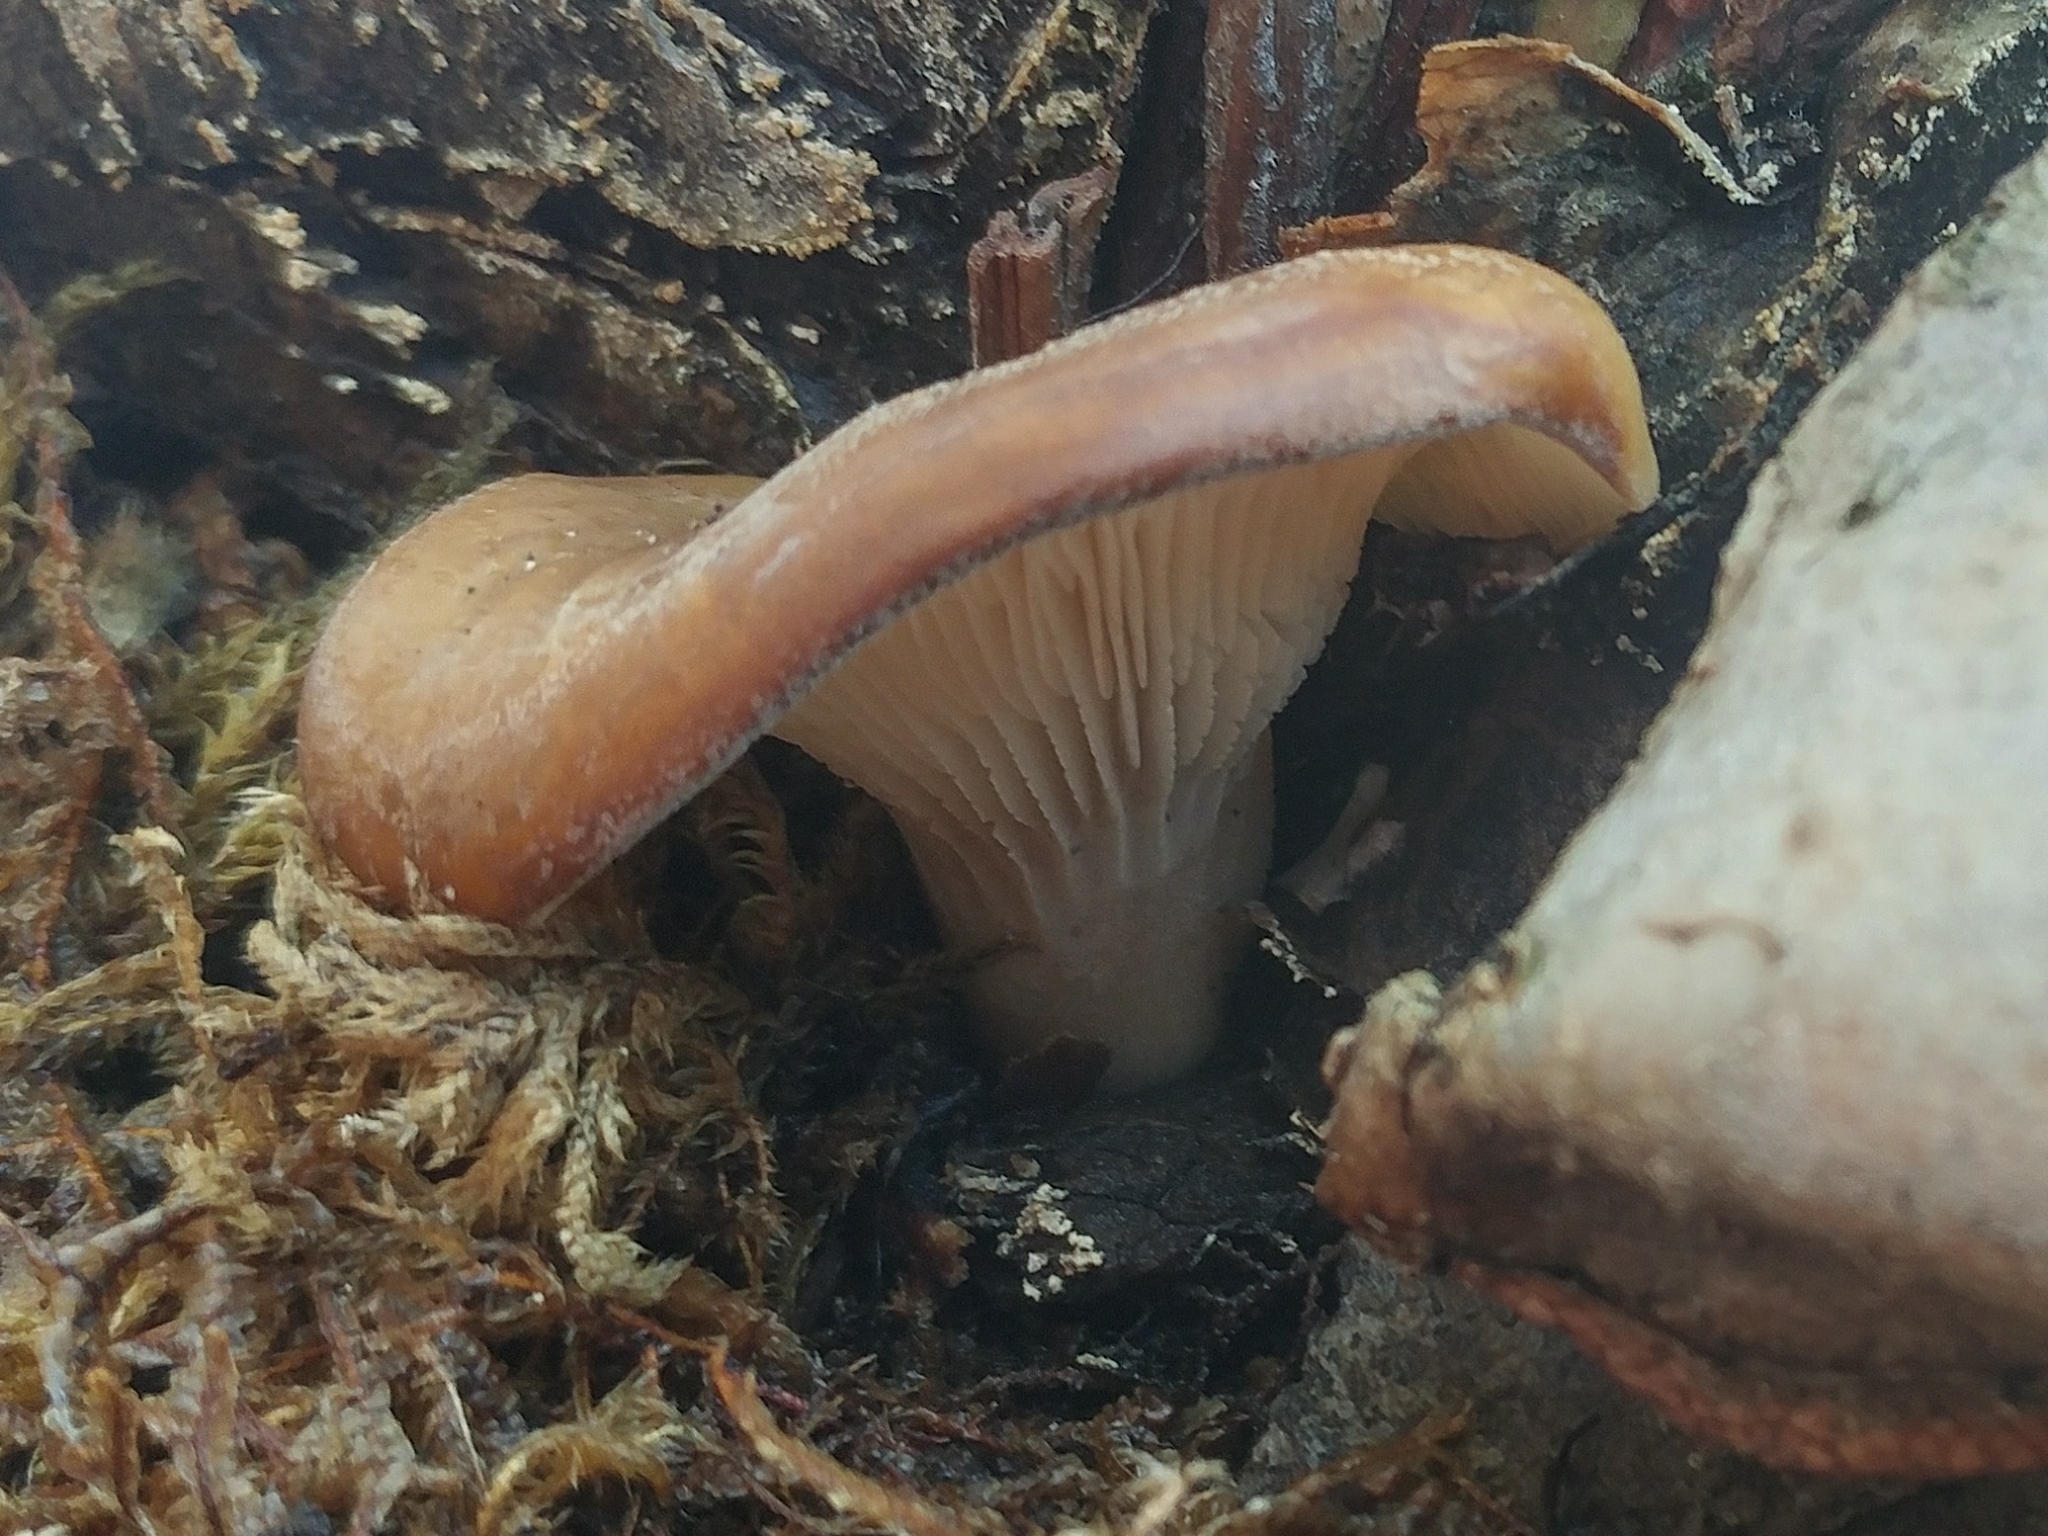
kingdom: Fungi
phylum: Basidiomycota
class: Agaricomycetes
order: Agaricales
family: Pleurotaceae
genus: Hohenbuehelia
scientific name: Hohenbuehelia petaloides
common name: Shoehorn oyster
